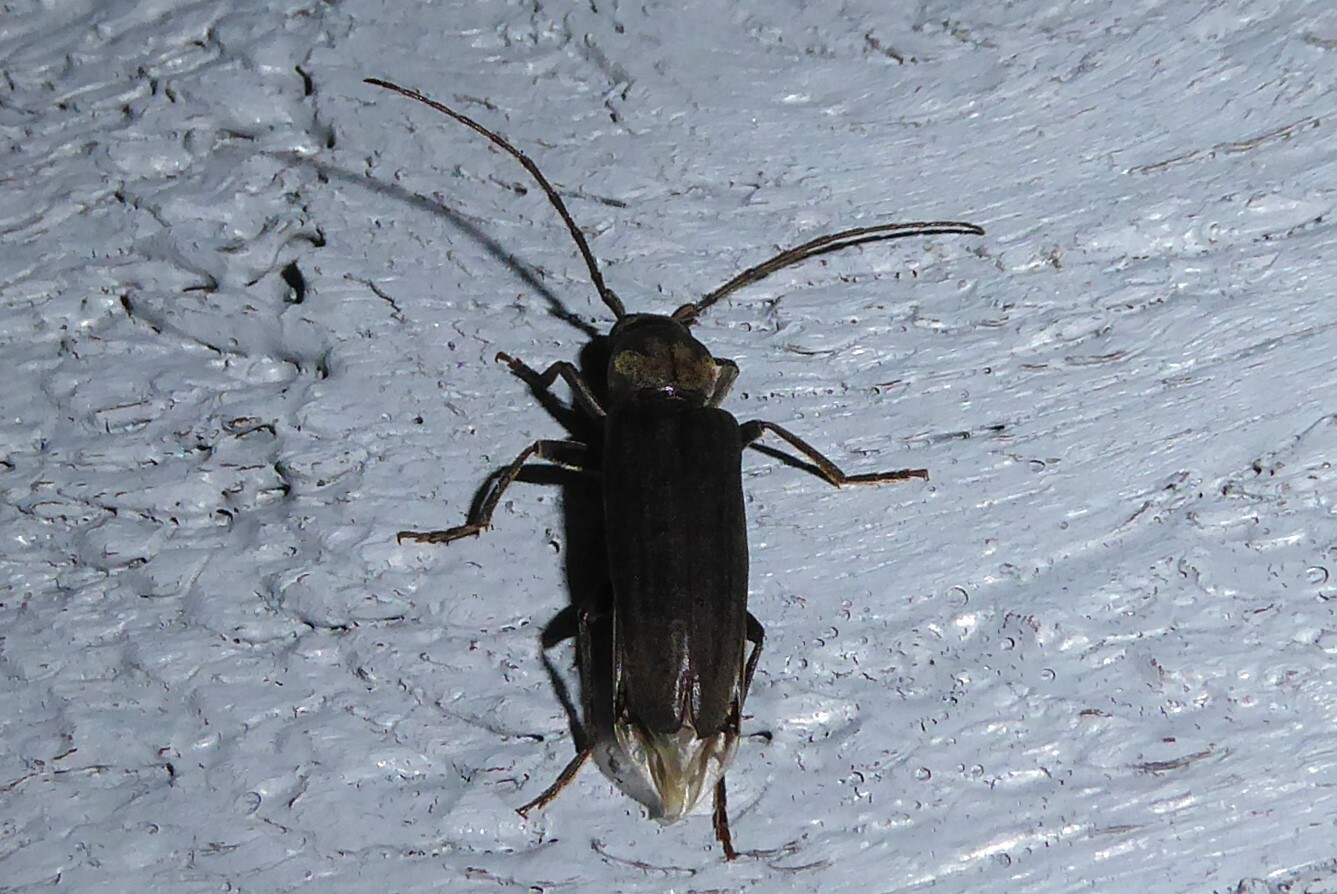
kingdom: Animalia
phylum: Arthropoda
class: Insecta
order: Coleoptera
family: Cerambycidae
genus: Arhopalus
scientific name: Arhopalus ferus
